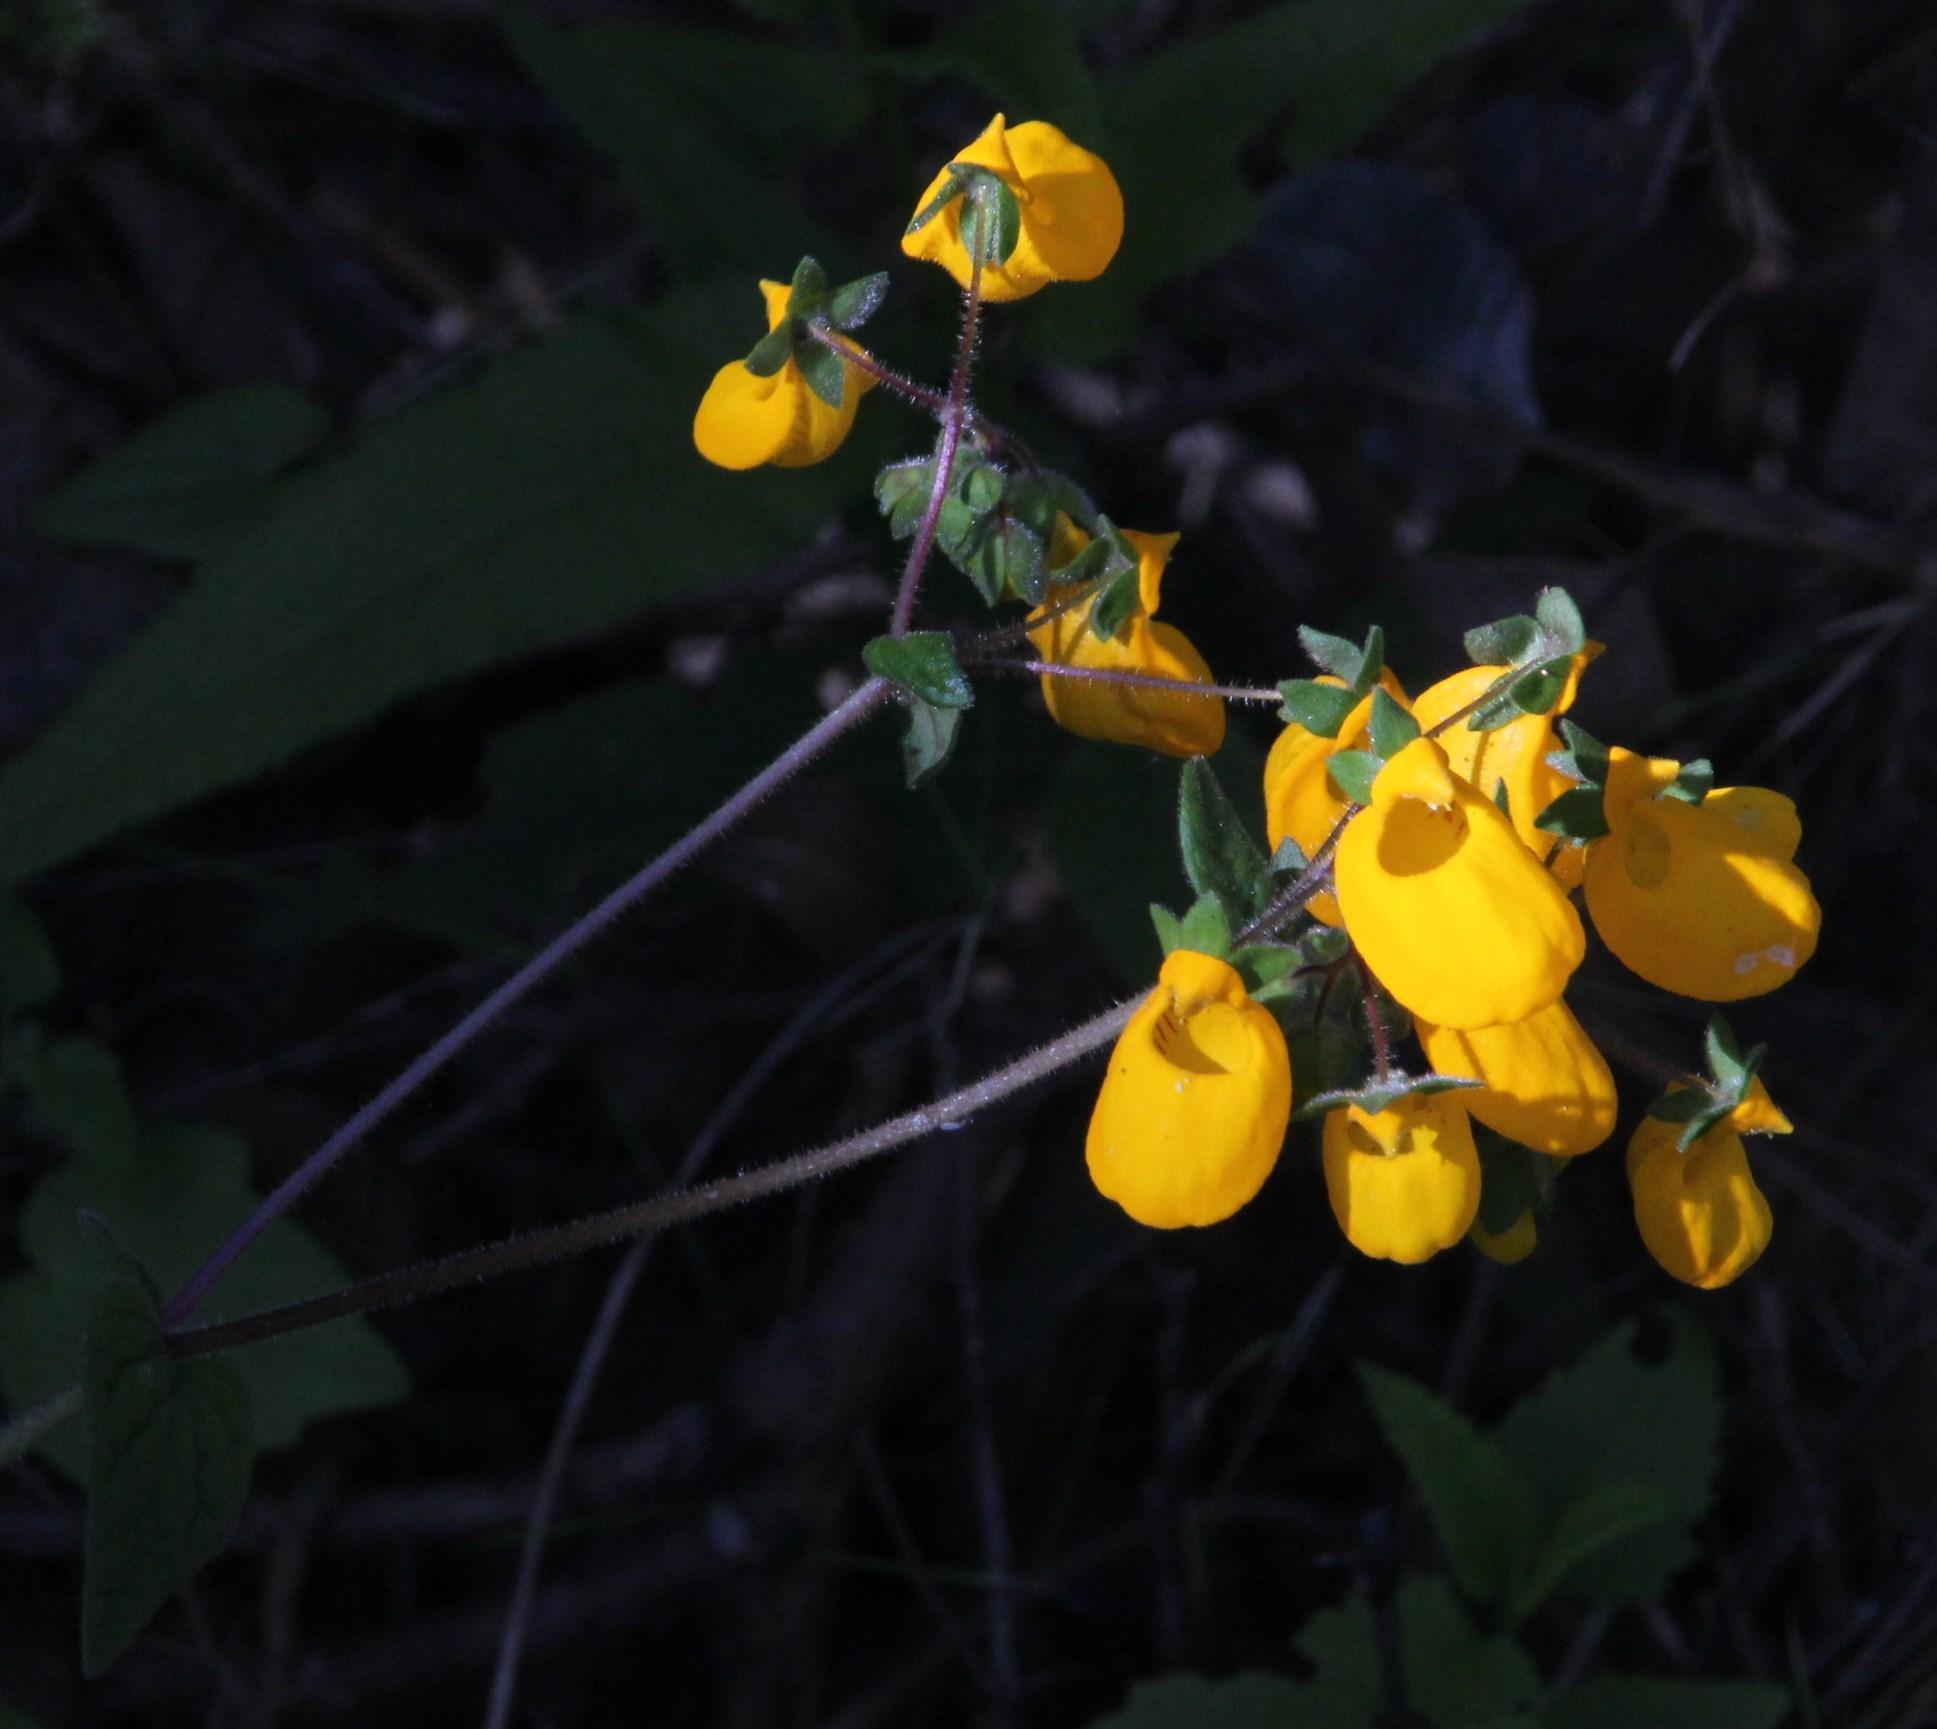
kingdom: Plantae
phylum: Tracheophyta
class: Magnoliopsida
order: Lamiales
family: Calceolariaceae
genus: Calceolaria
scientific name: Calceolaria corymbosa
